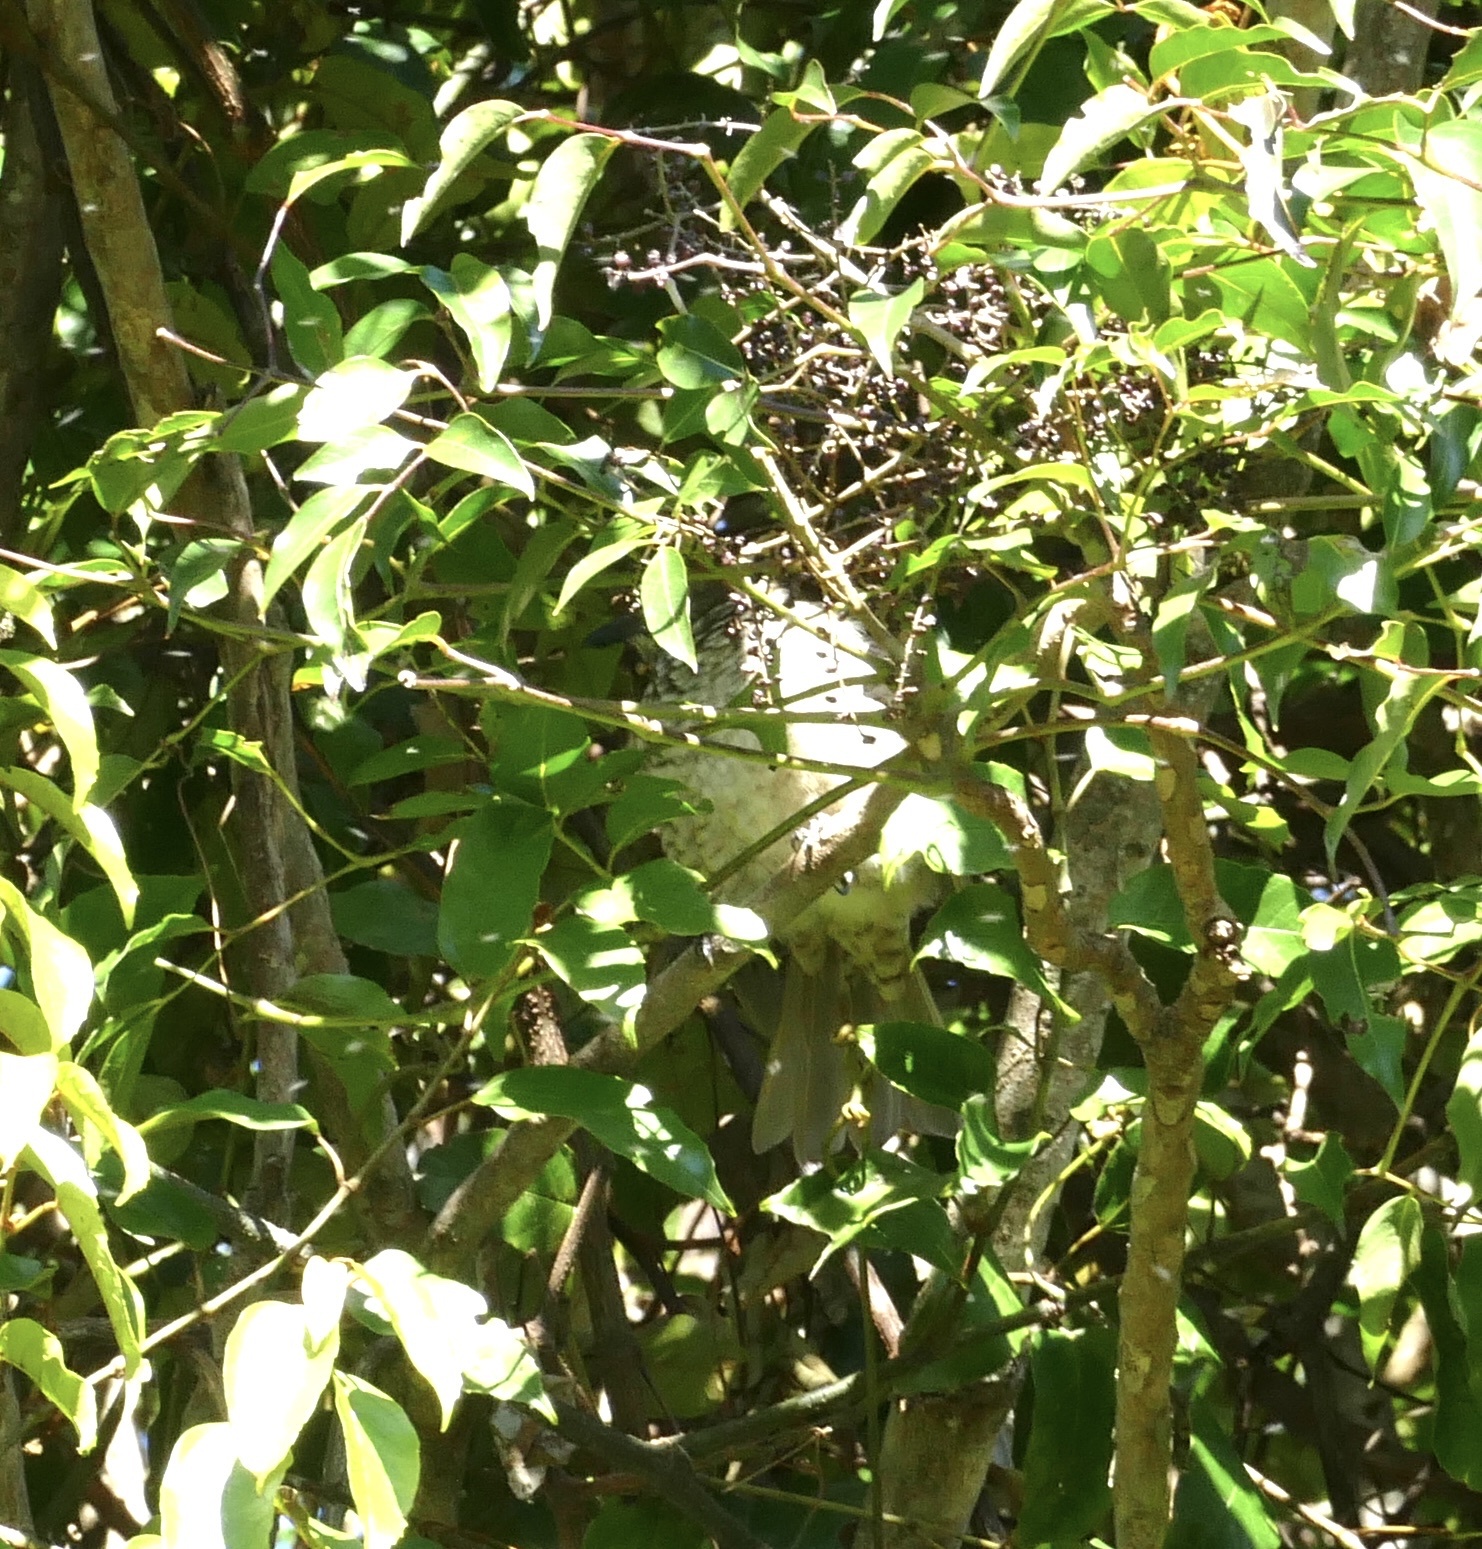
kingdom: Animalia
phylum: Chordata
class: Aves
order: Passeriformes
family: Ptilonorhynchidae
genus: Sericulus
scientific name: Sericulus chrysocephalus
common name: Regent bowerbird
